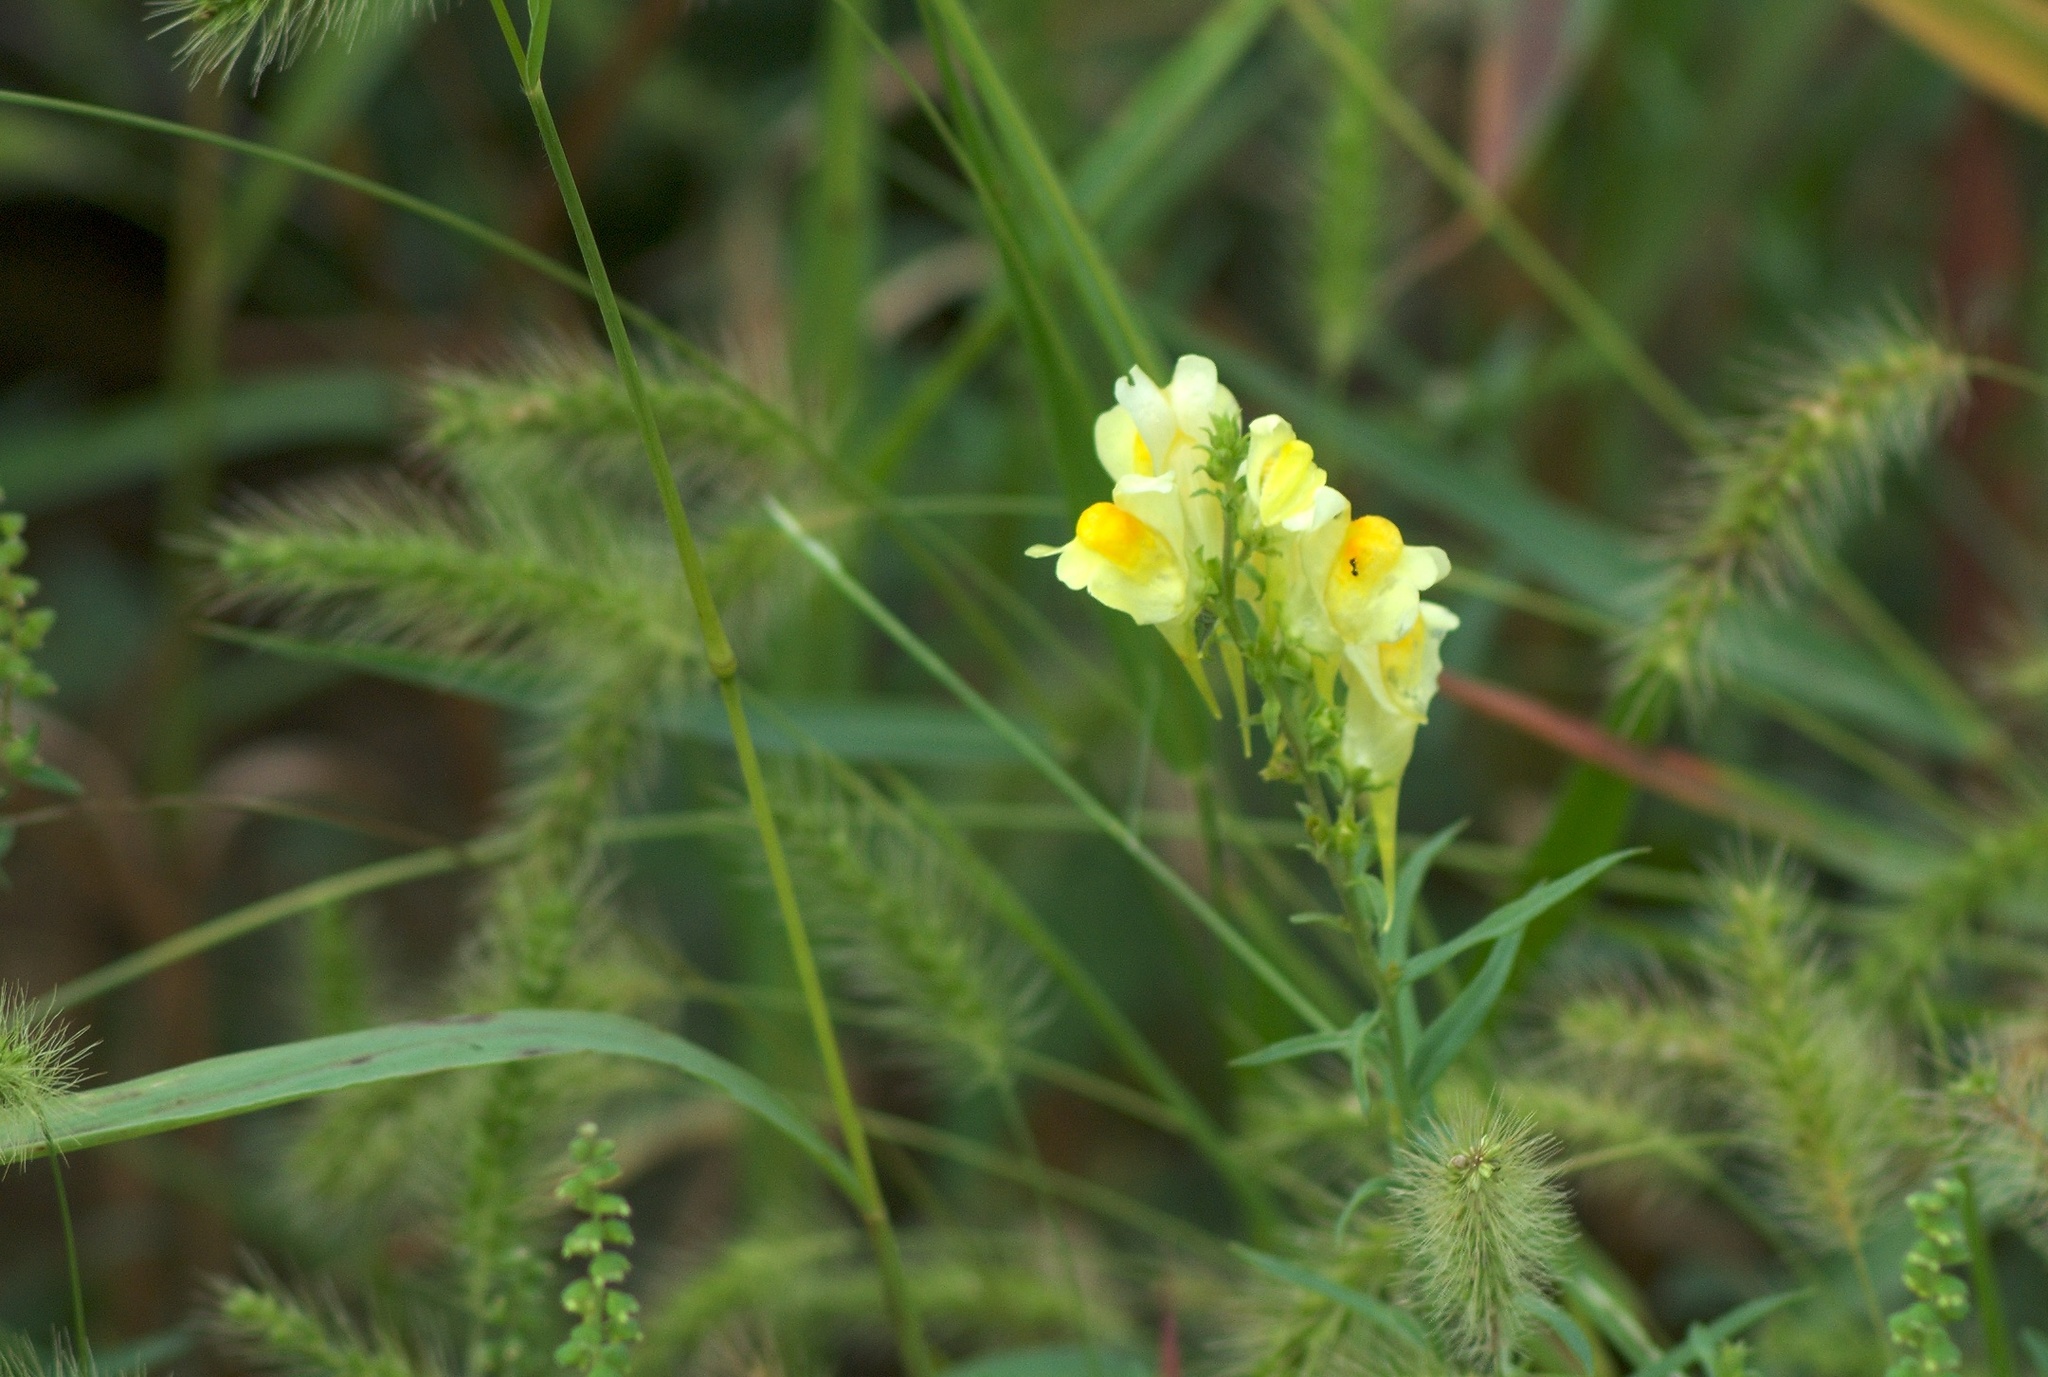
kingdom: Plantae
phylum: Tracheophyta
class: Magnoliopsida
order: Lamiales
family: Plantaginaceae
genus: Linaria
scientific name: Linaria vulgaris
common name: Butter and eggs
